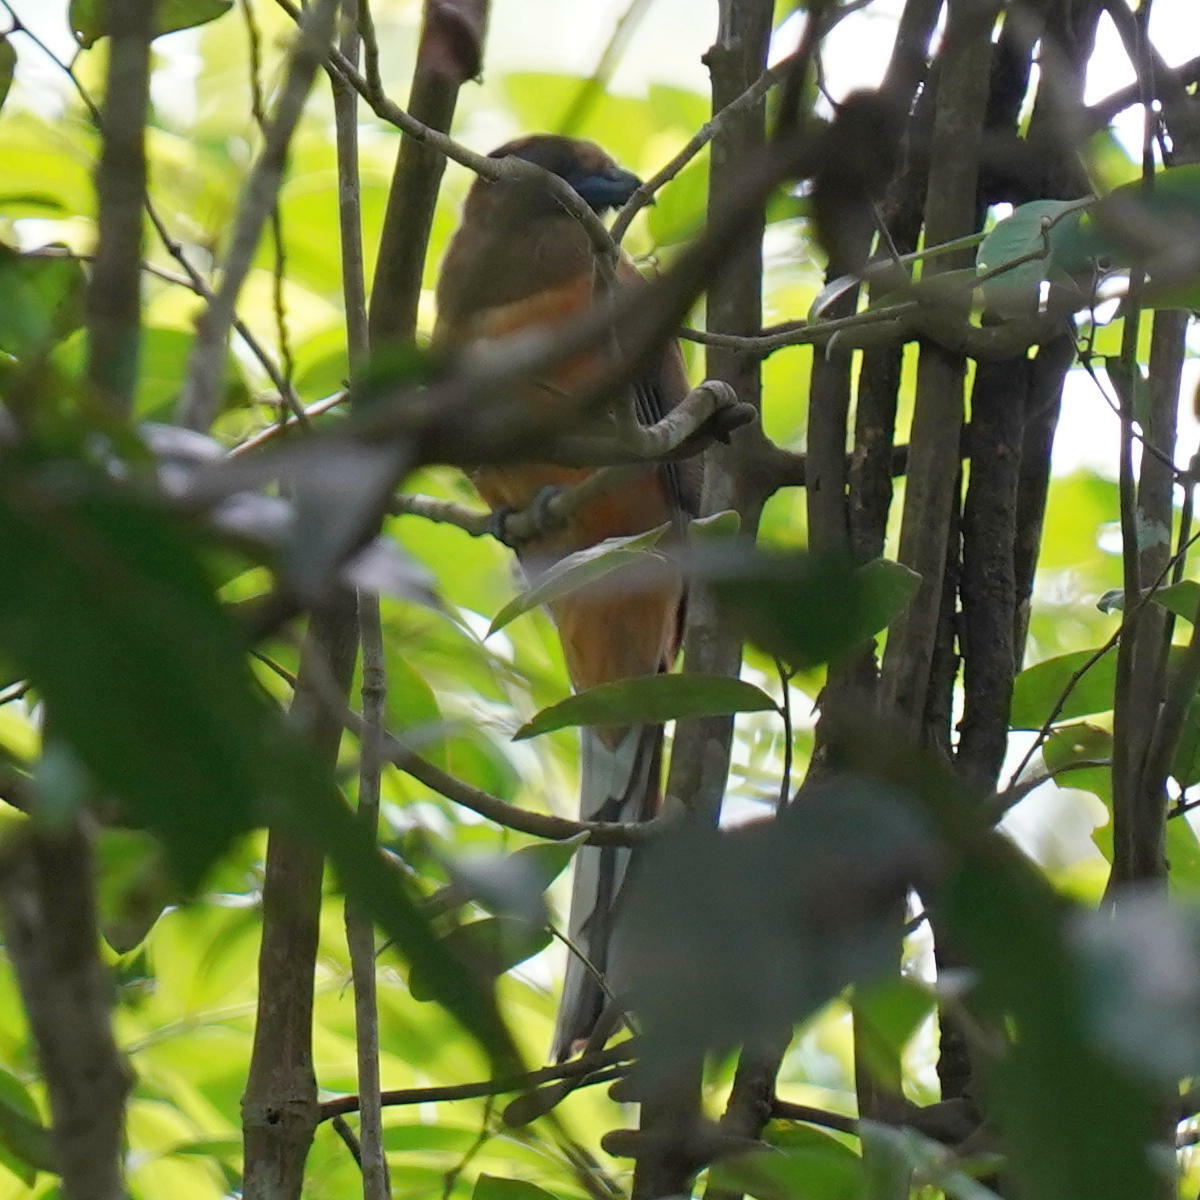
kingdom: Animalia
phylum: Chordata
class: Aves
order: Trogoniformes
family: Trogonidae
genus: Harpactes
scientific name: Harpactes fasciatus
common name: Malabar trogon
